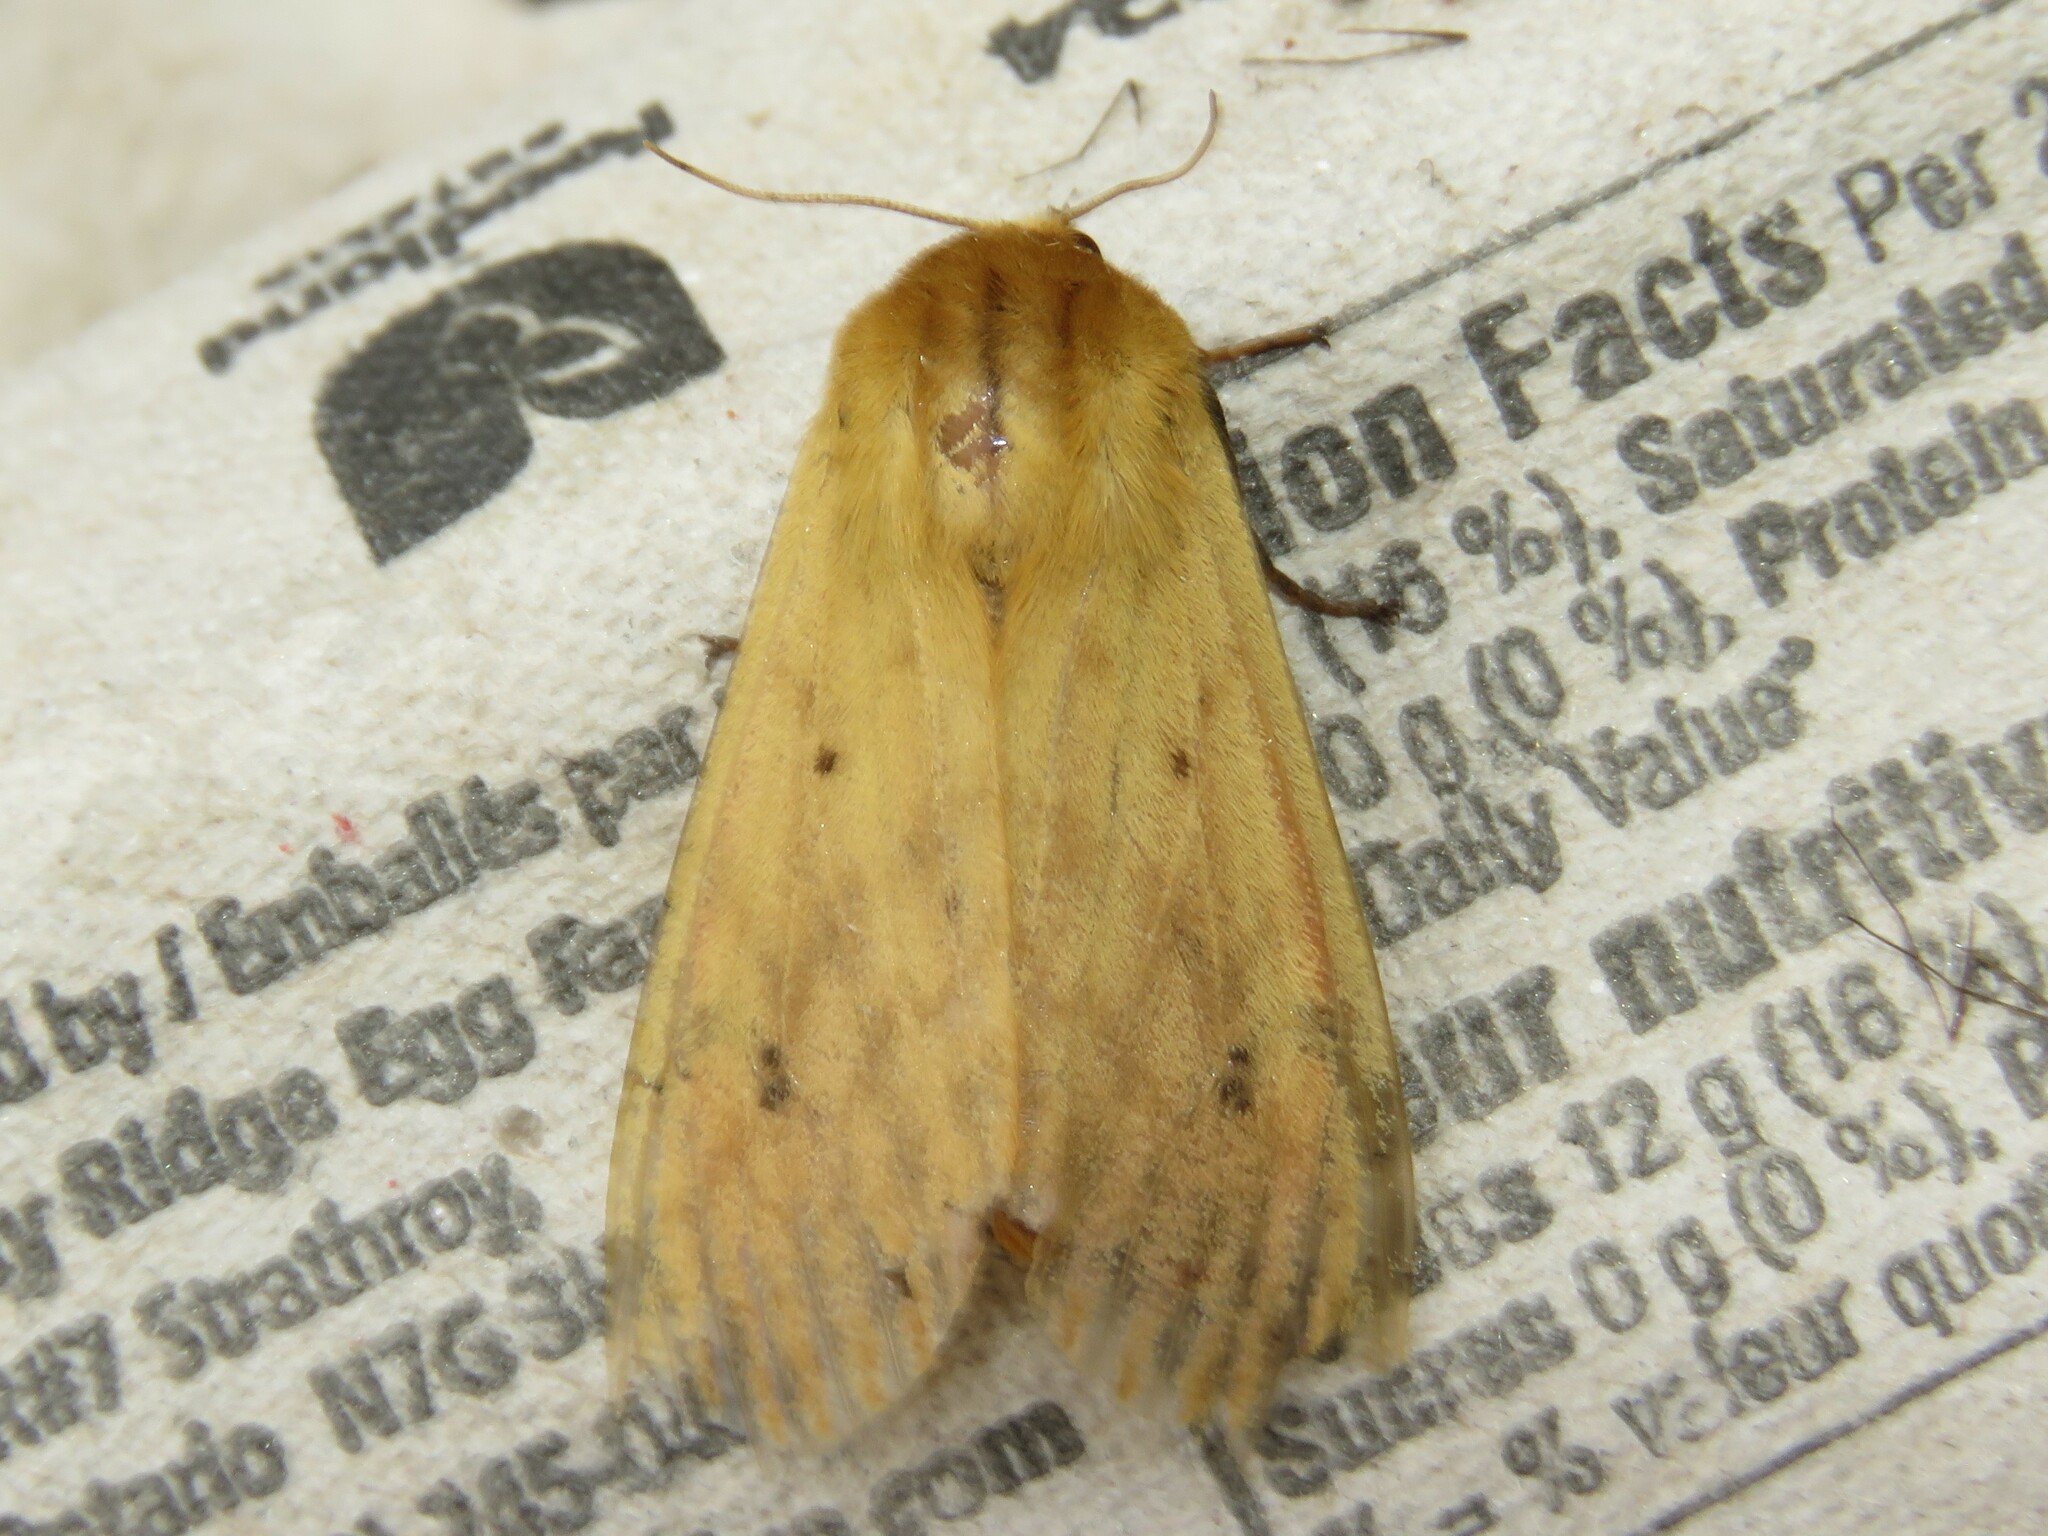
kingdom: Animalia
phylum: Arthropoda
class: Insecta
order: Lepidoptera
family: Erebidae
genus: Pyrrharctia
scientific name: Pyrrharctia isabella
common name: Isabella tiger moth
